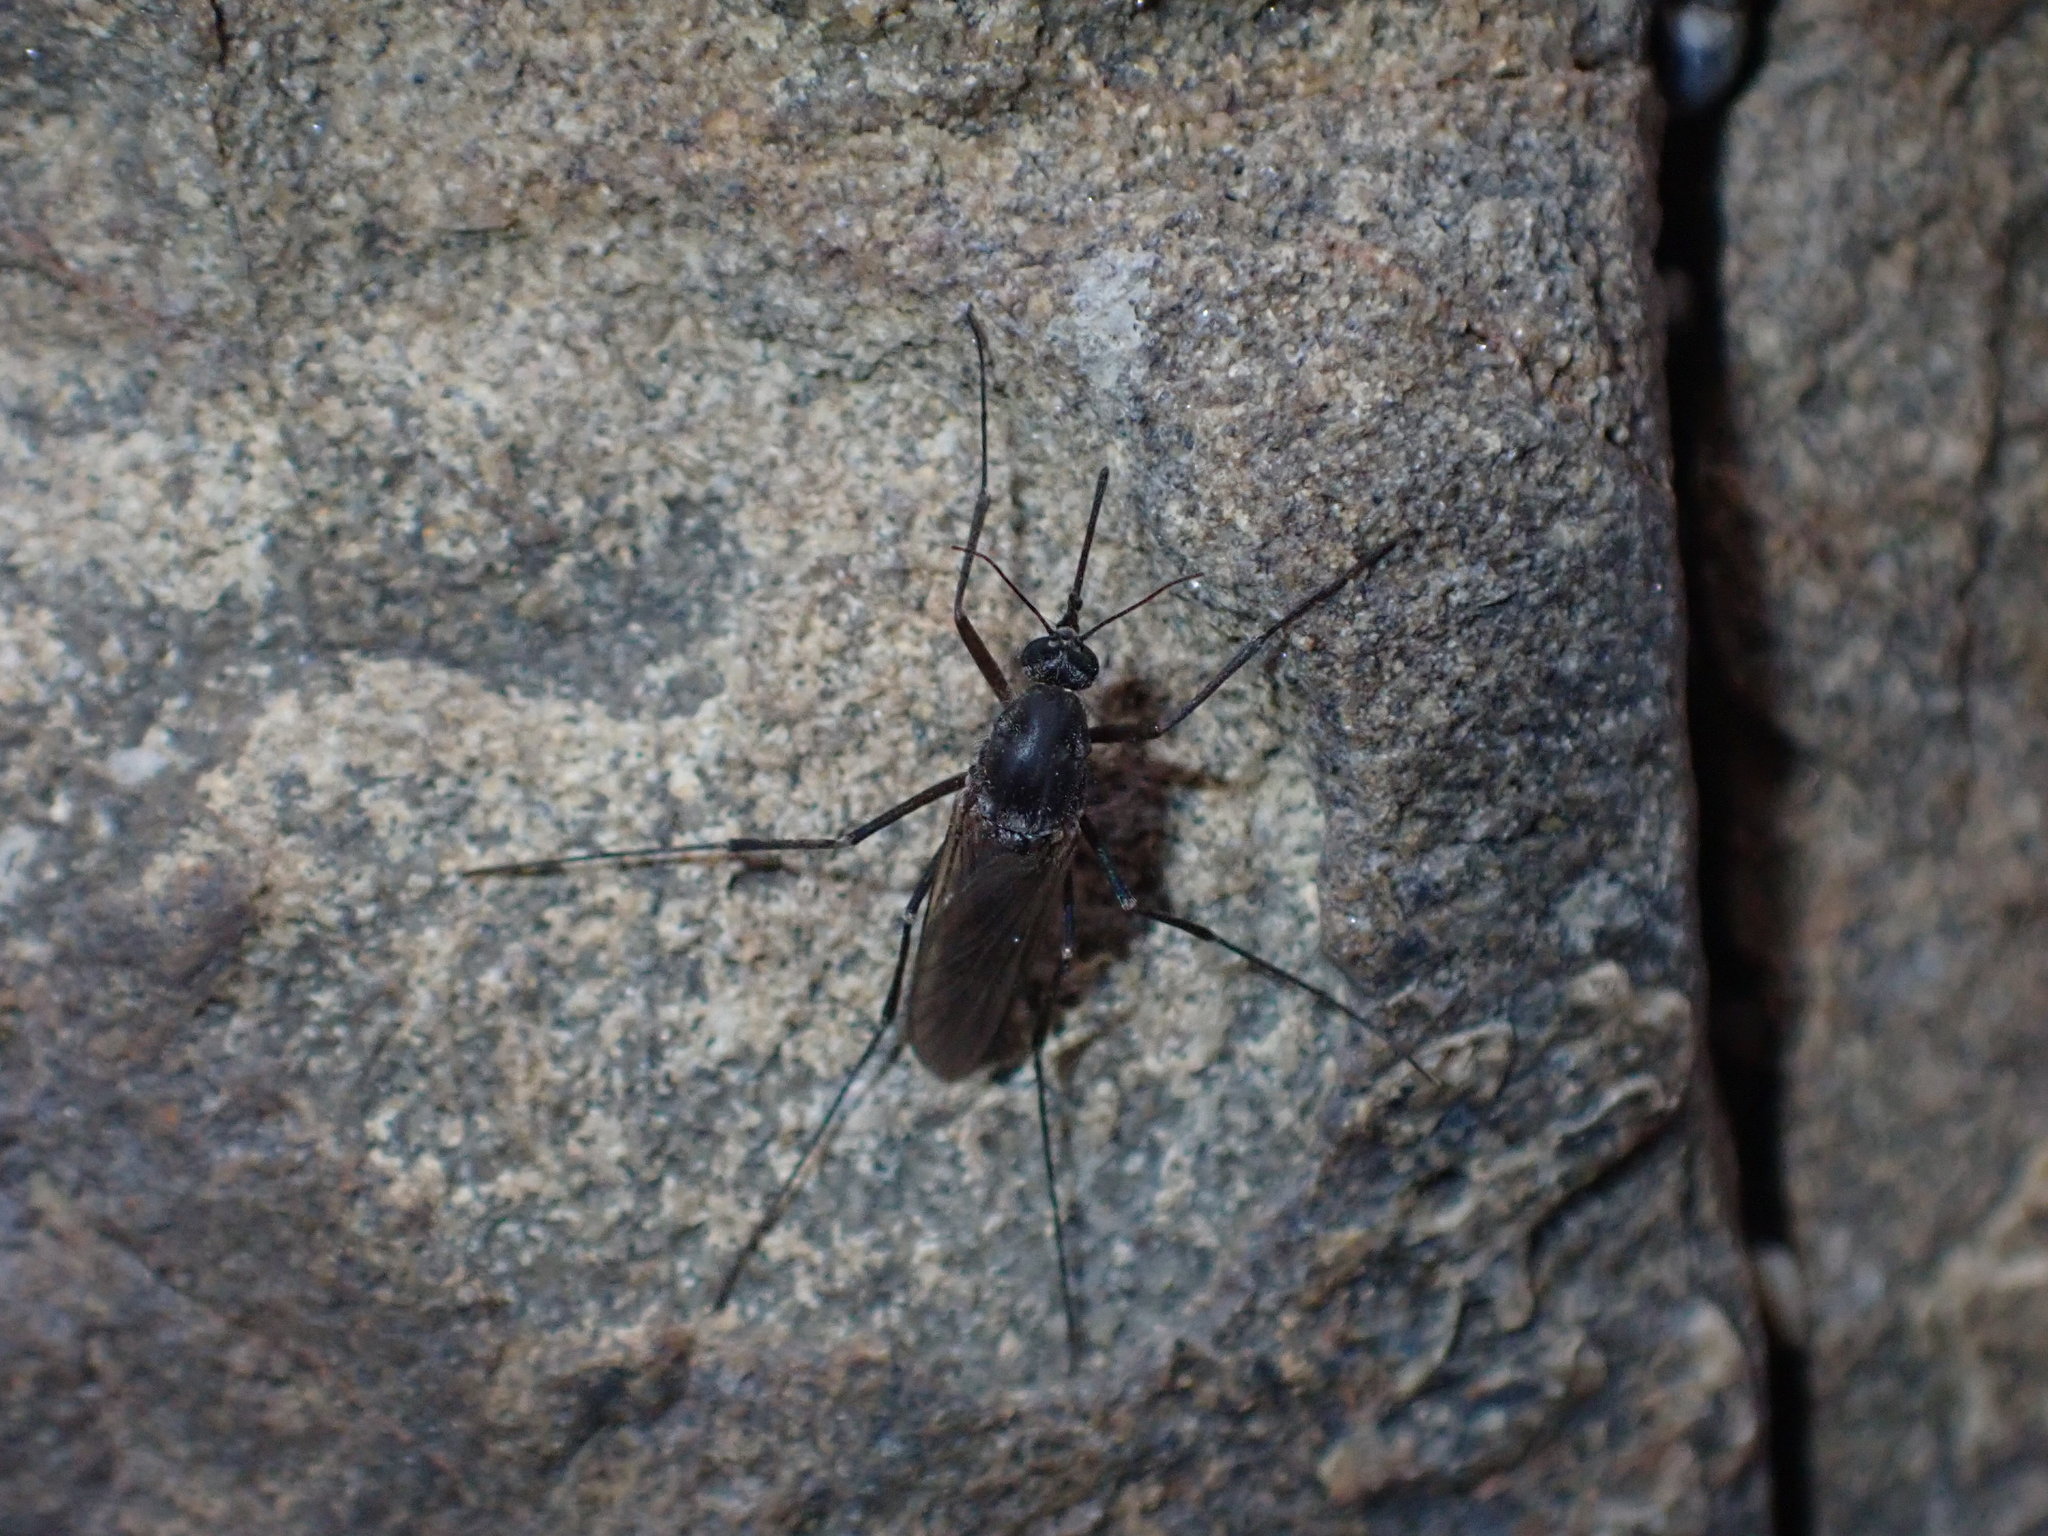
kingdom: Animalia
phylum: Arthropoda
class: Insecta
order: Diptera
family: Culicidae
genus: Opifex
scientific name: Opifex fuscus
